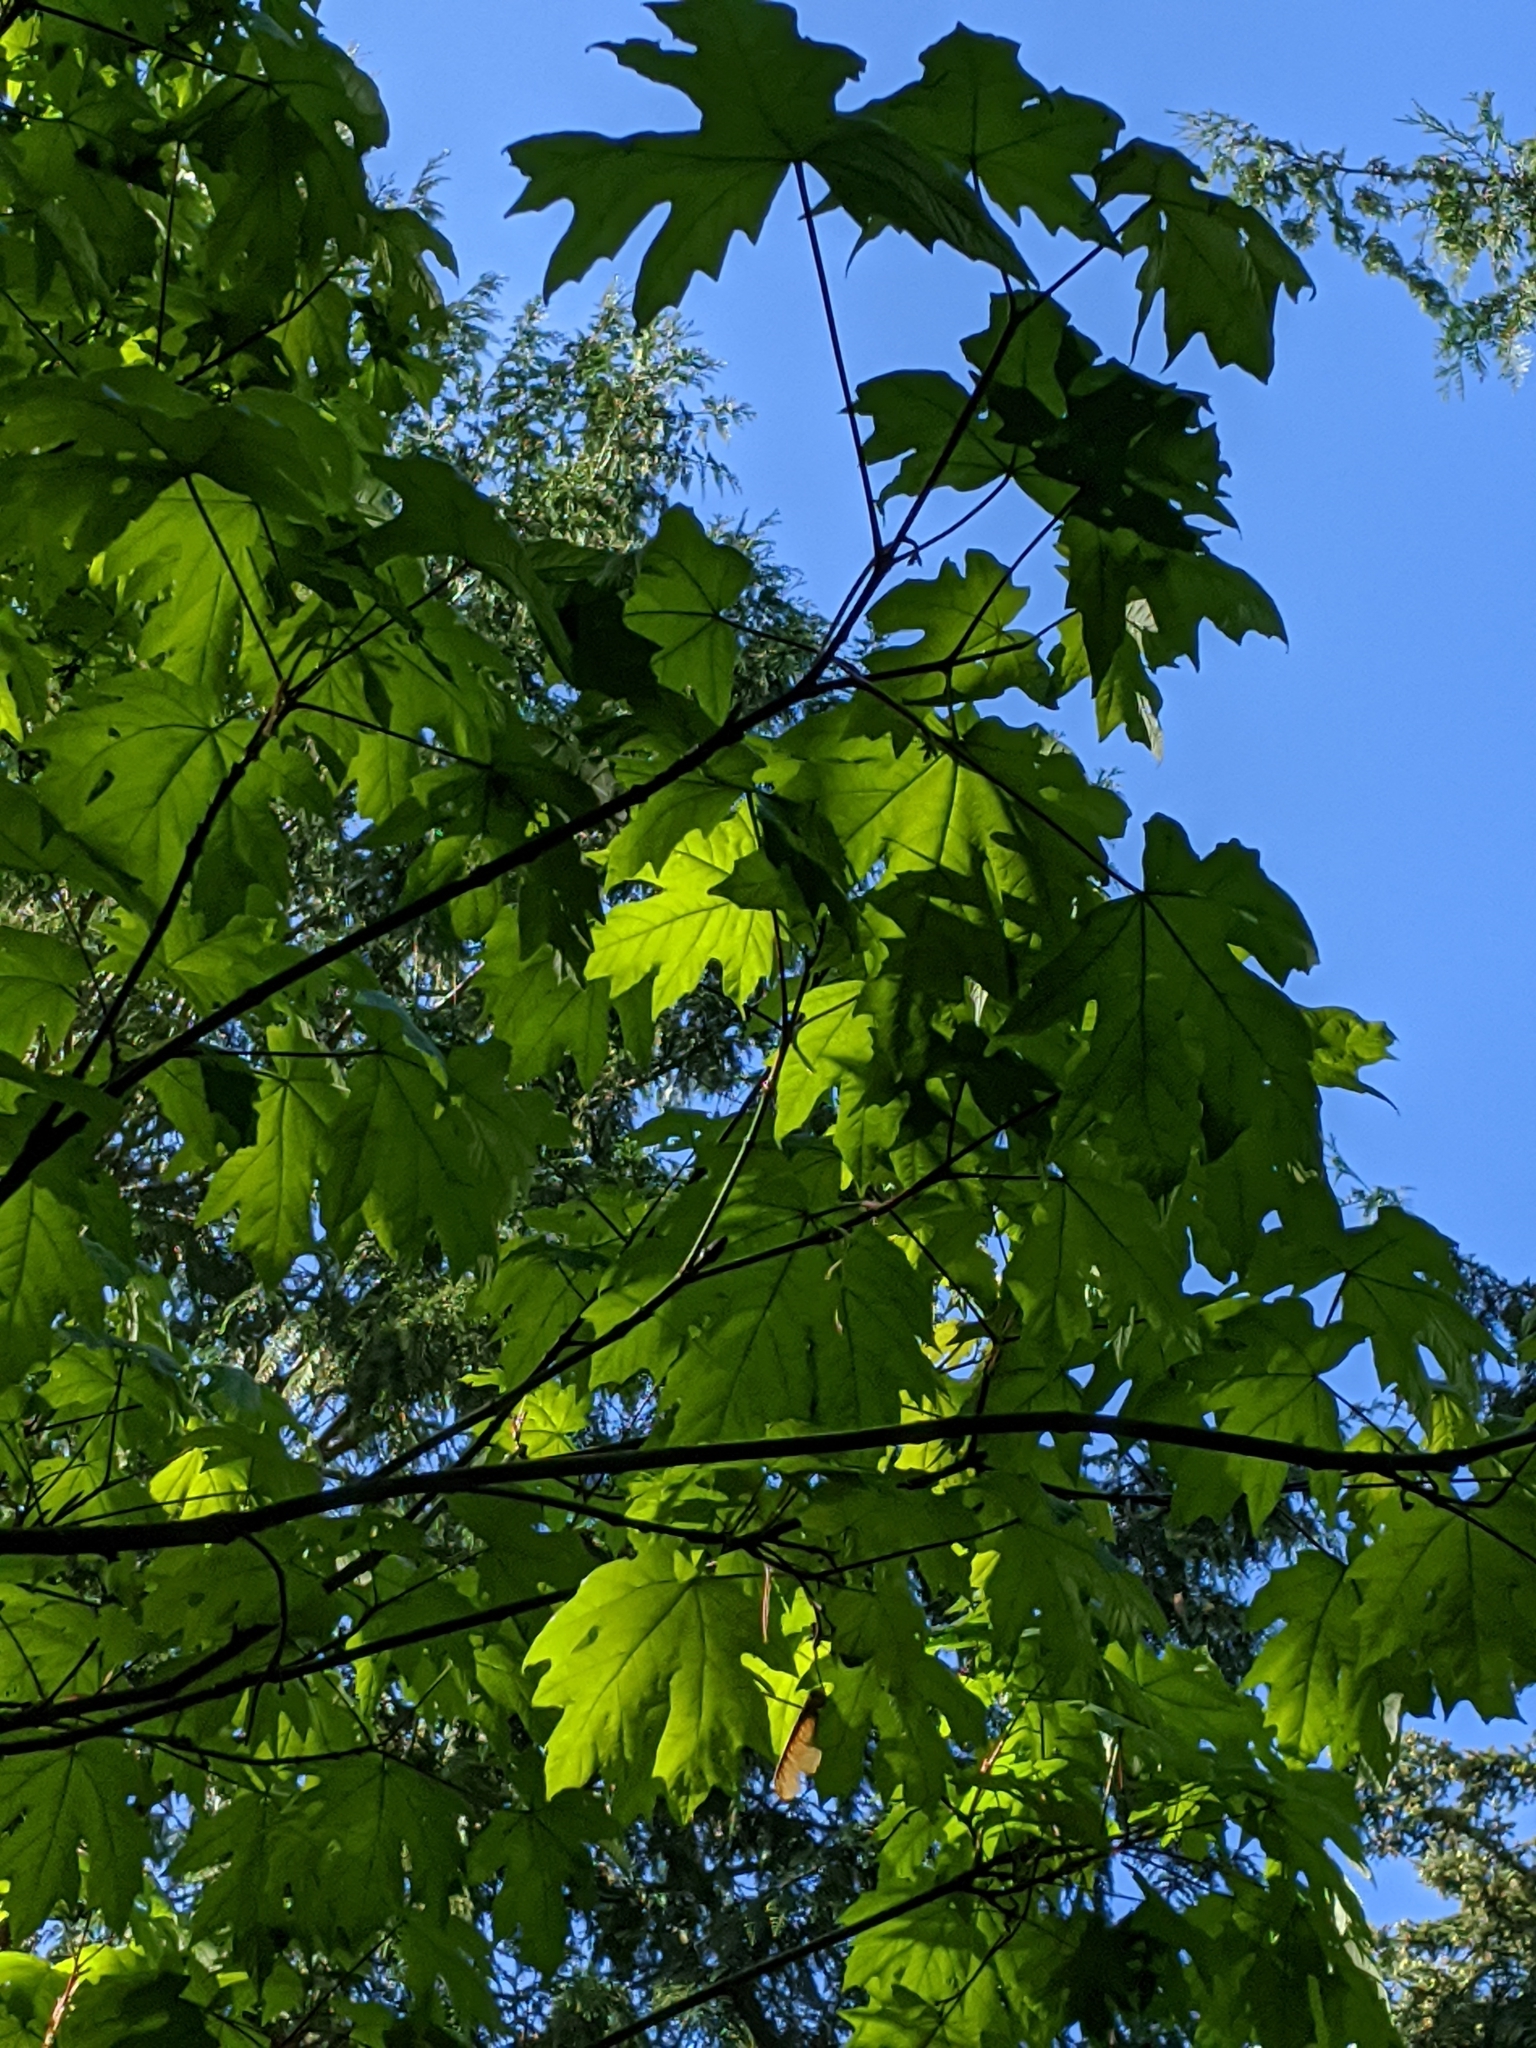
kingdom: Plantae
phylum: Tracheophyta
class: Magnoliopsida
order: Sapindales
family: Sapindaceae
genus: Acer
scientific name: Acer macrophyllum
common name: Oregon maple
